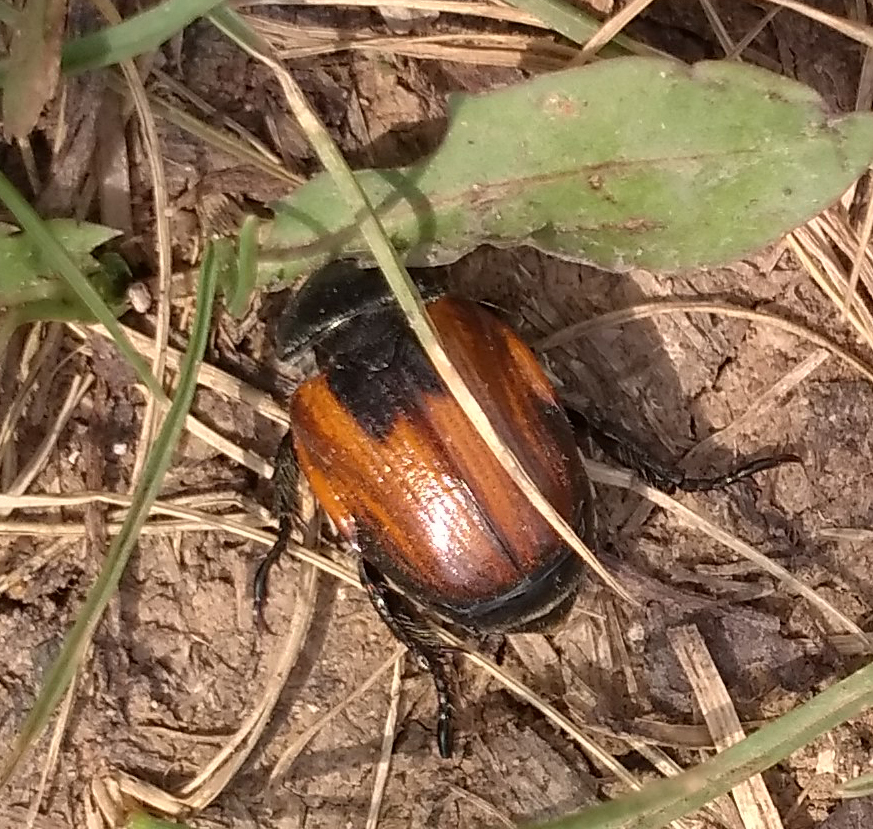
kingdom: Animalia
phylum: Arthropoda
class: Insecta
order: Coleoptera
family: Scarabaeidae
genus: Anisoplia
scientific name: Anisoplia austriaca
